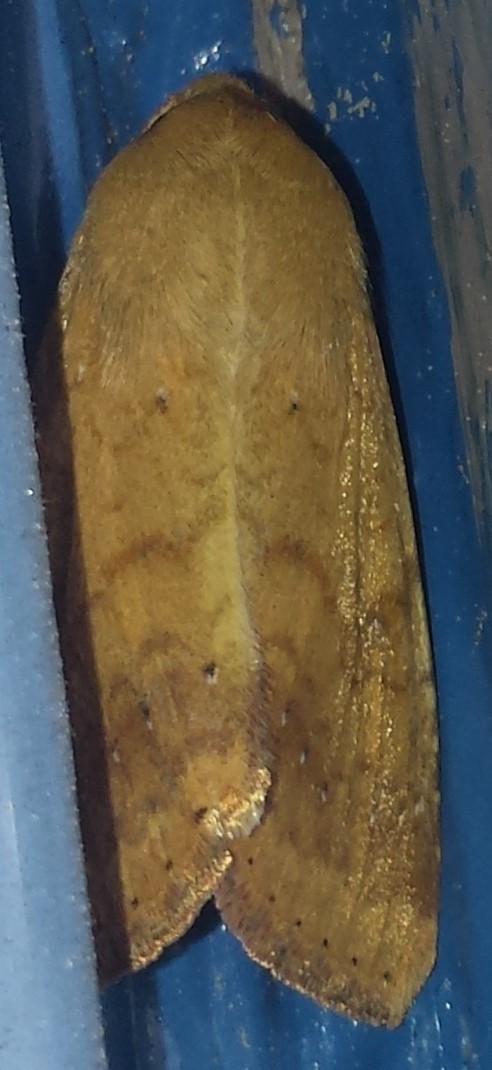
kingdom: Animalia
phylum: Arthropoda
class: Insecta
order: Lepidoptera
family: Noctuidae
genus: Helicoverpa
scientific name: Helicoverpa zea
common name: Bollworm
